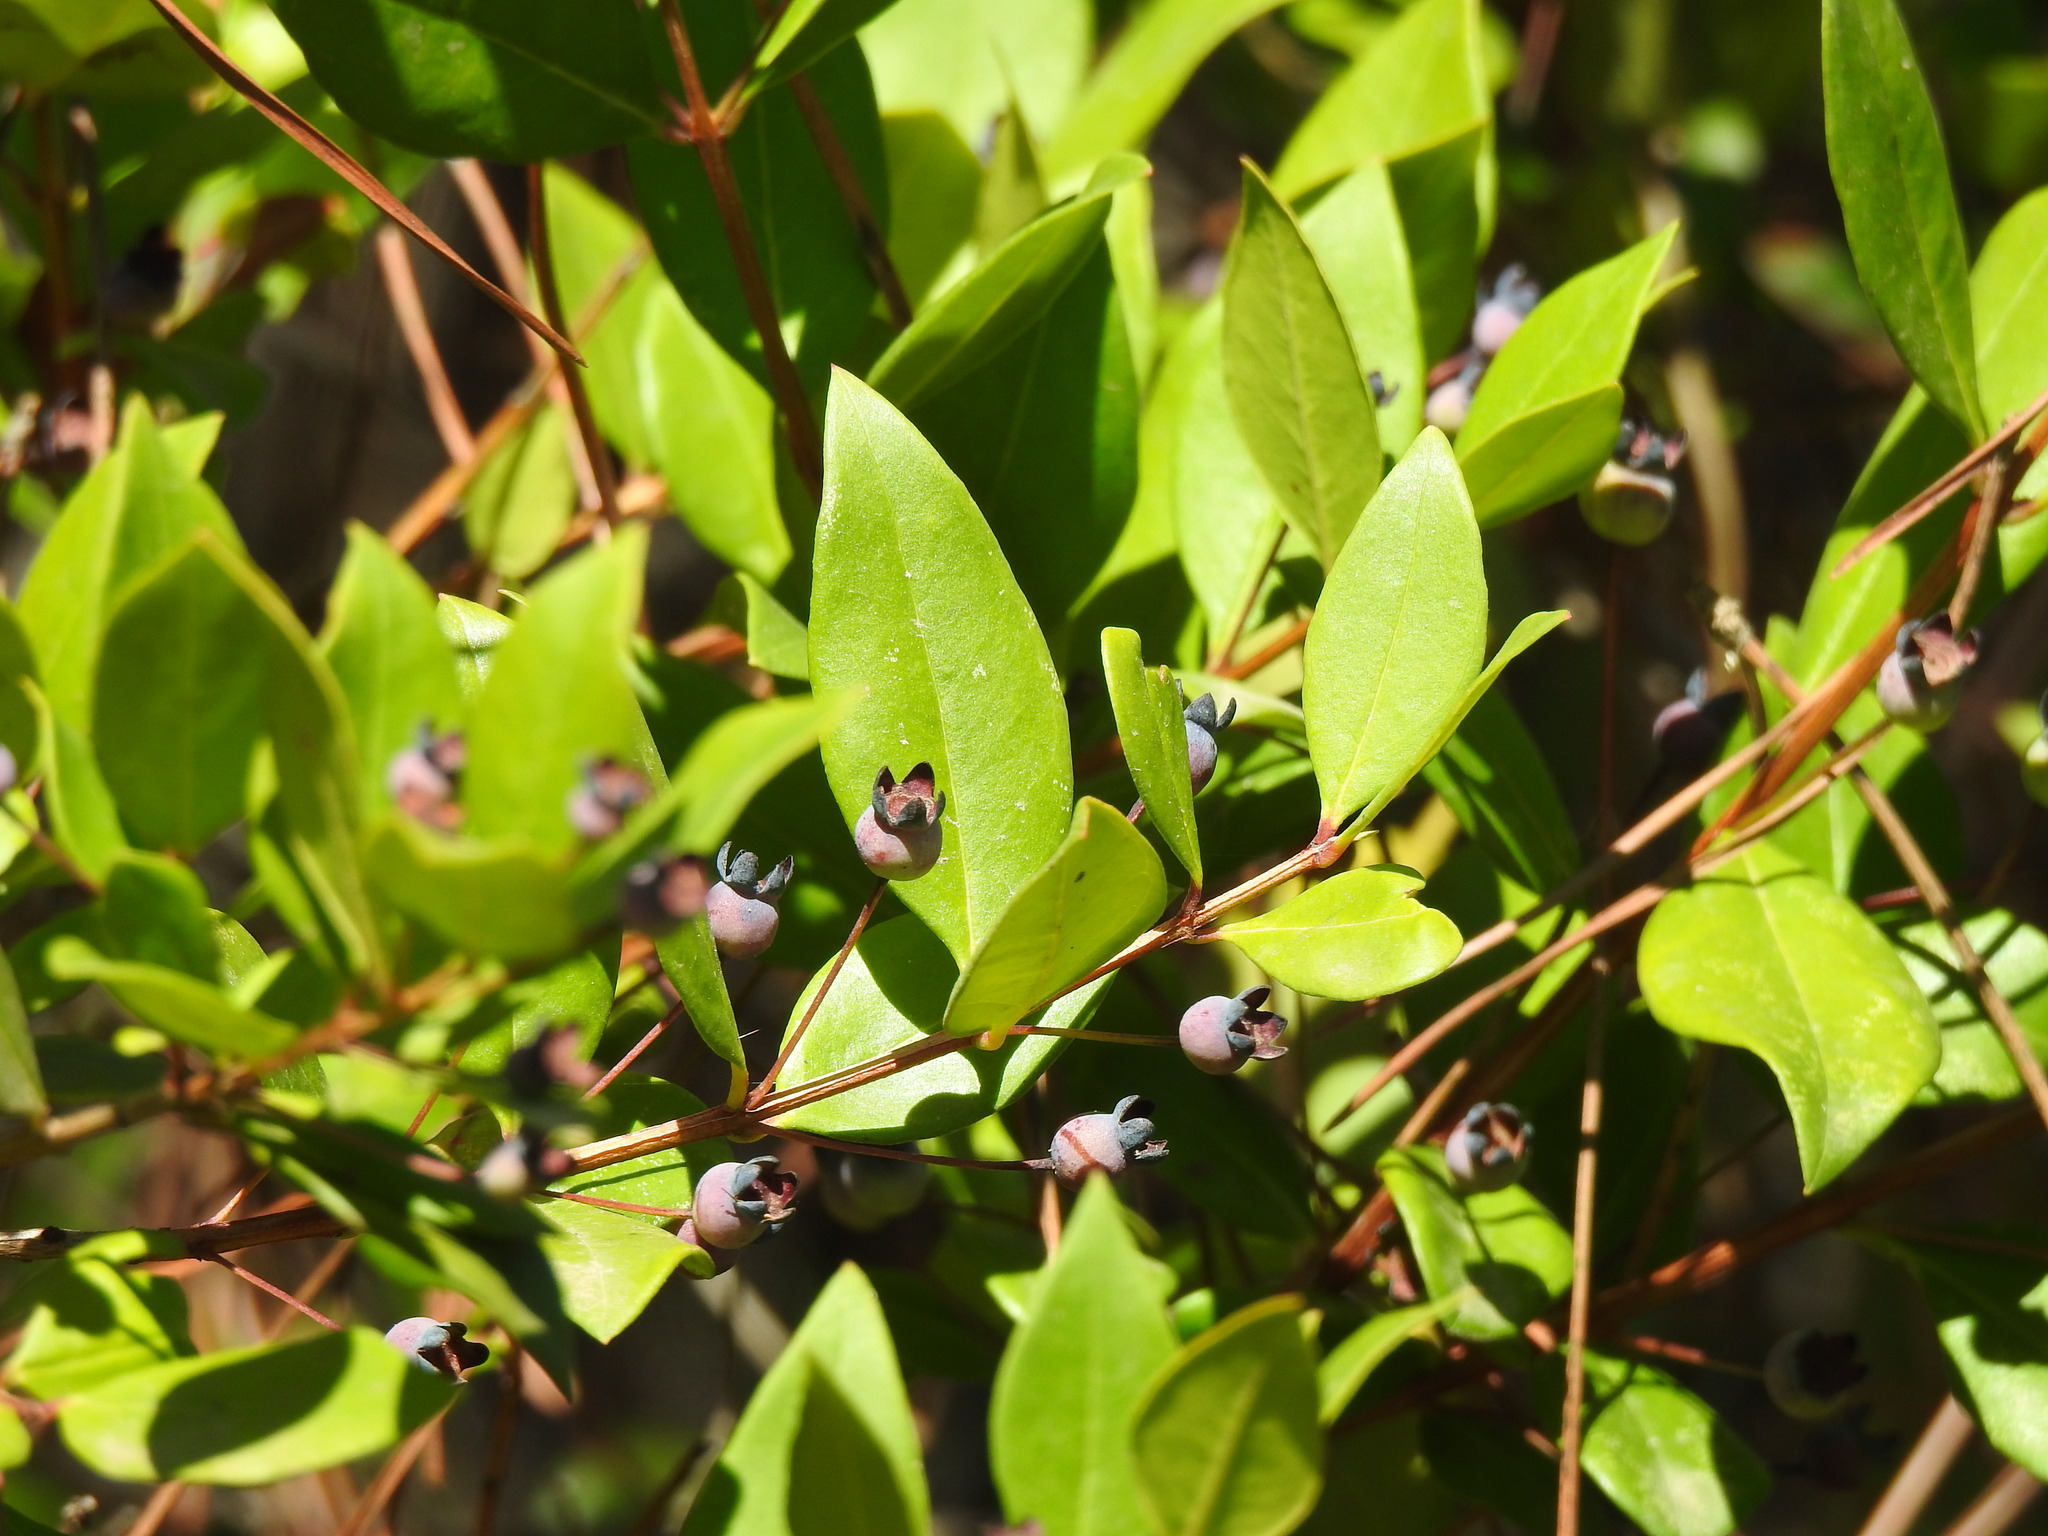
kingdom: Plantae
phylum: Tracheophyta
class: Magnoliopsida
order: Myrtales
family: Myrtaceae
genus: Myrtus
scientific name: Myrtus communis
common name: Myrtle
